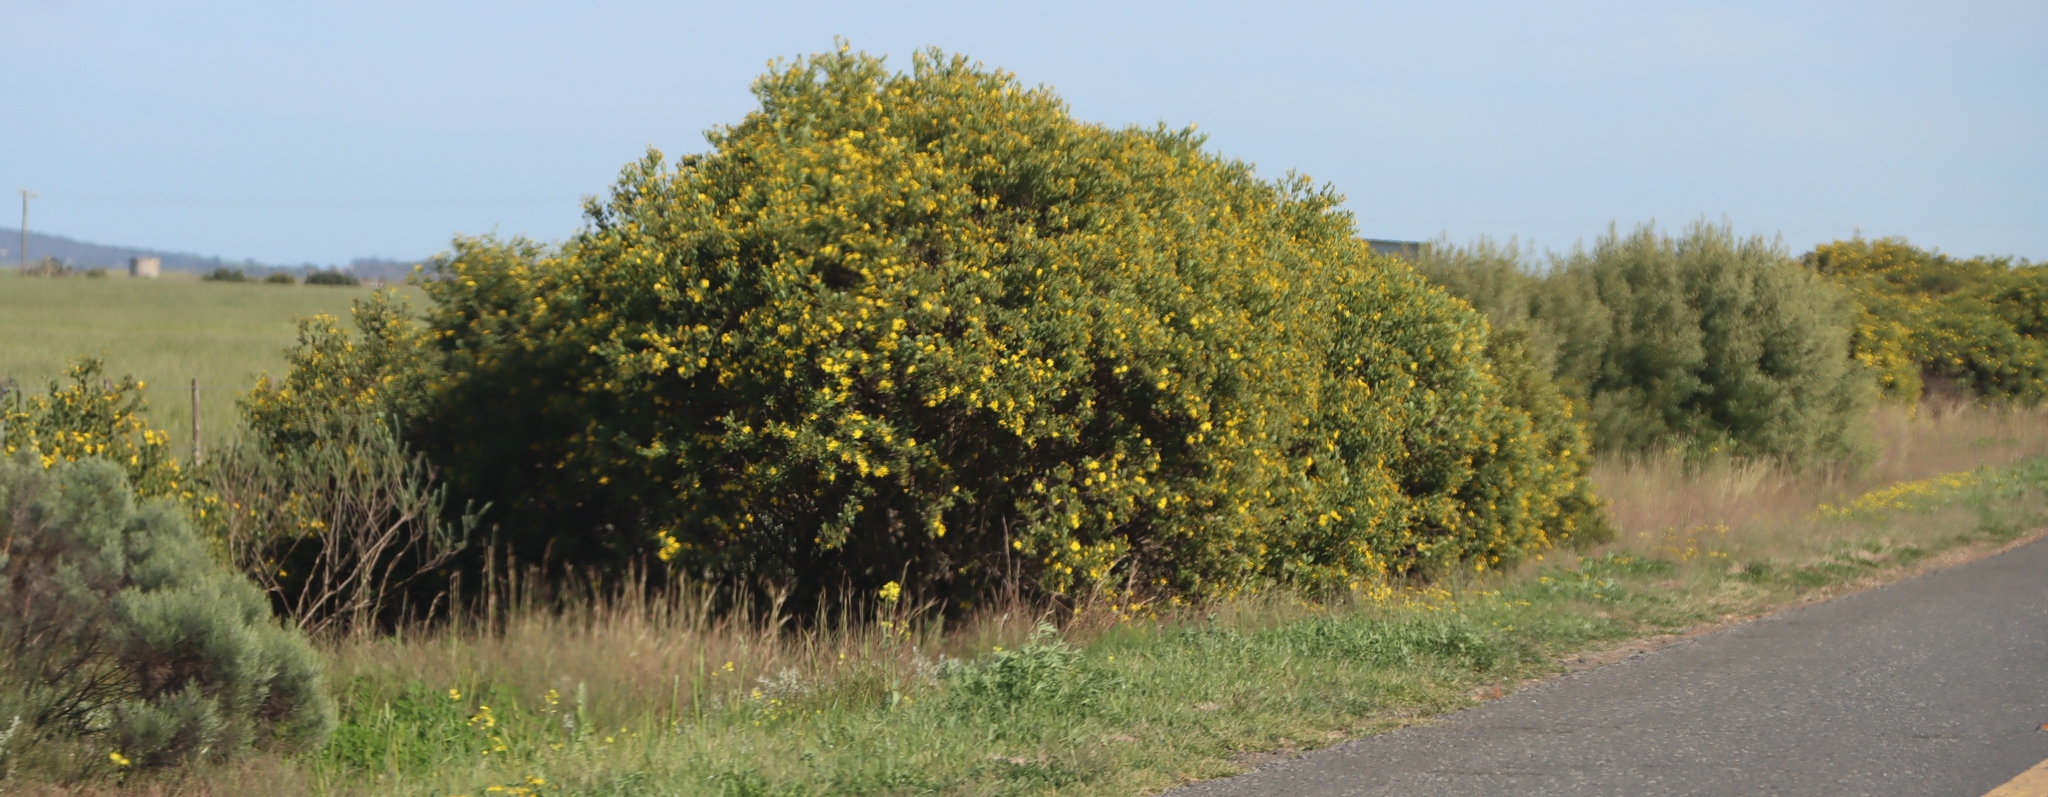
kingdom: Plantae
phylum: Tracheophyta
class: Magnoliopsida
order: Asterales
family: Asteraceae
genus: Osteospermum
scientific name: Osteospermum moniliferum
